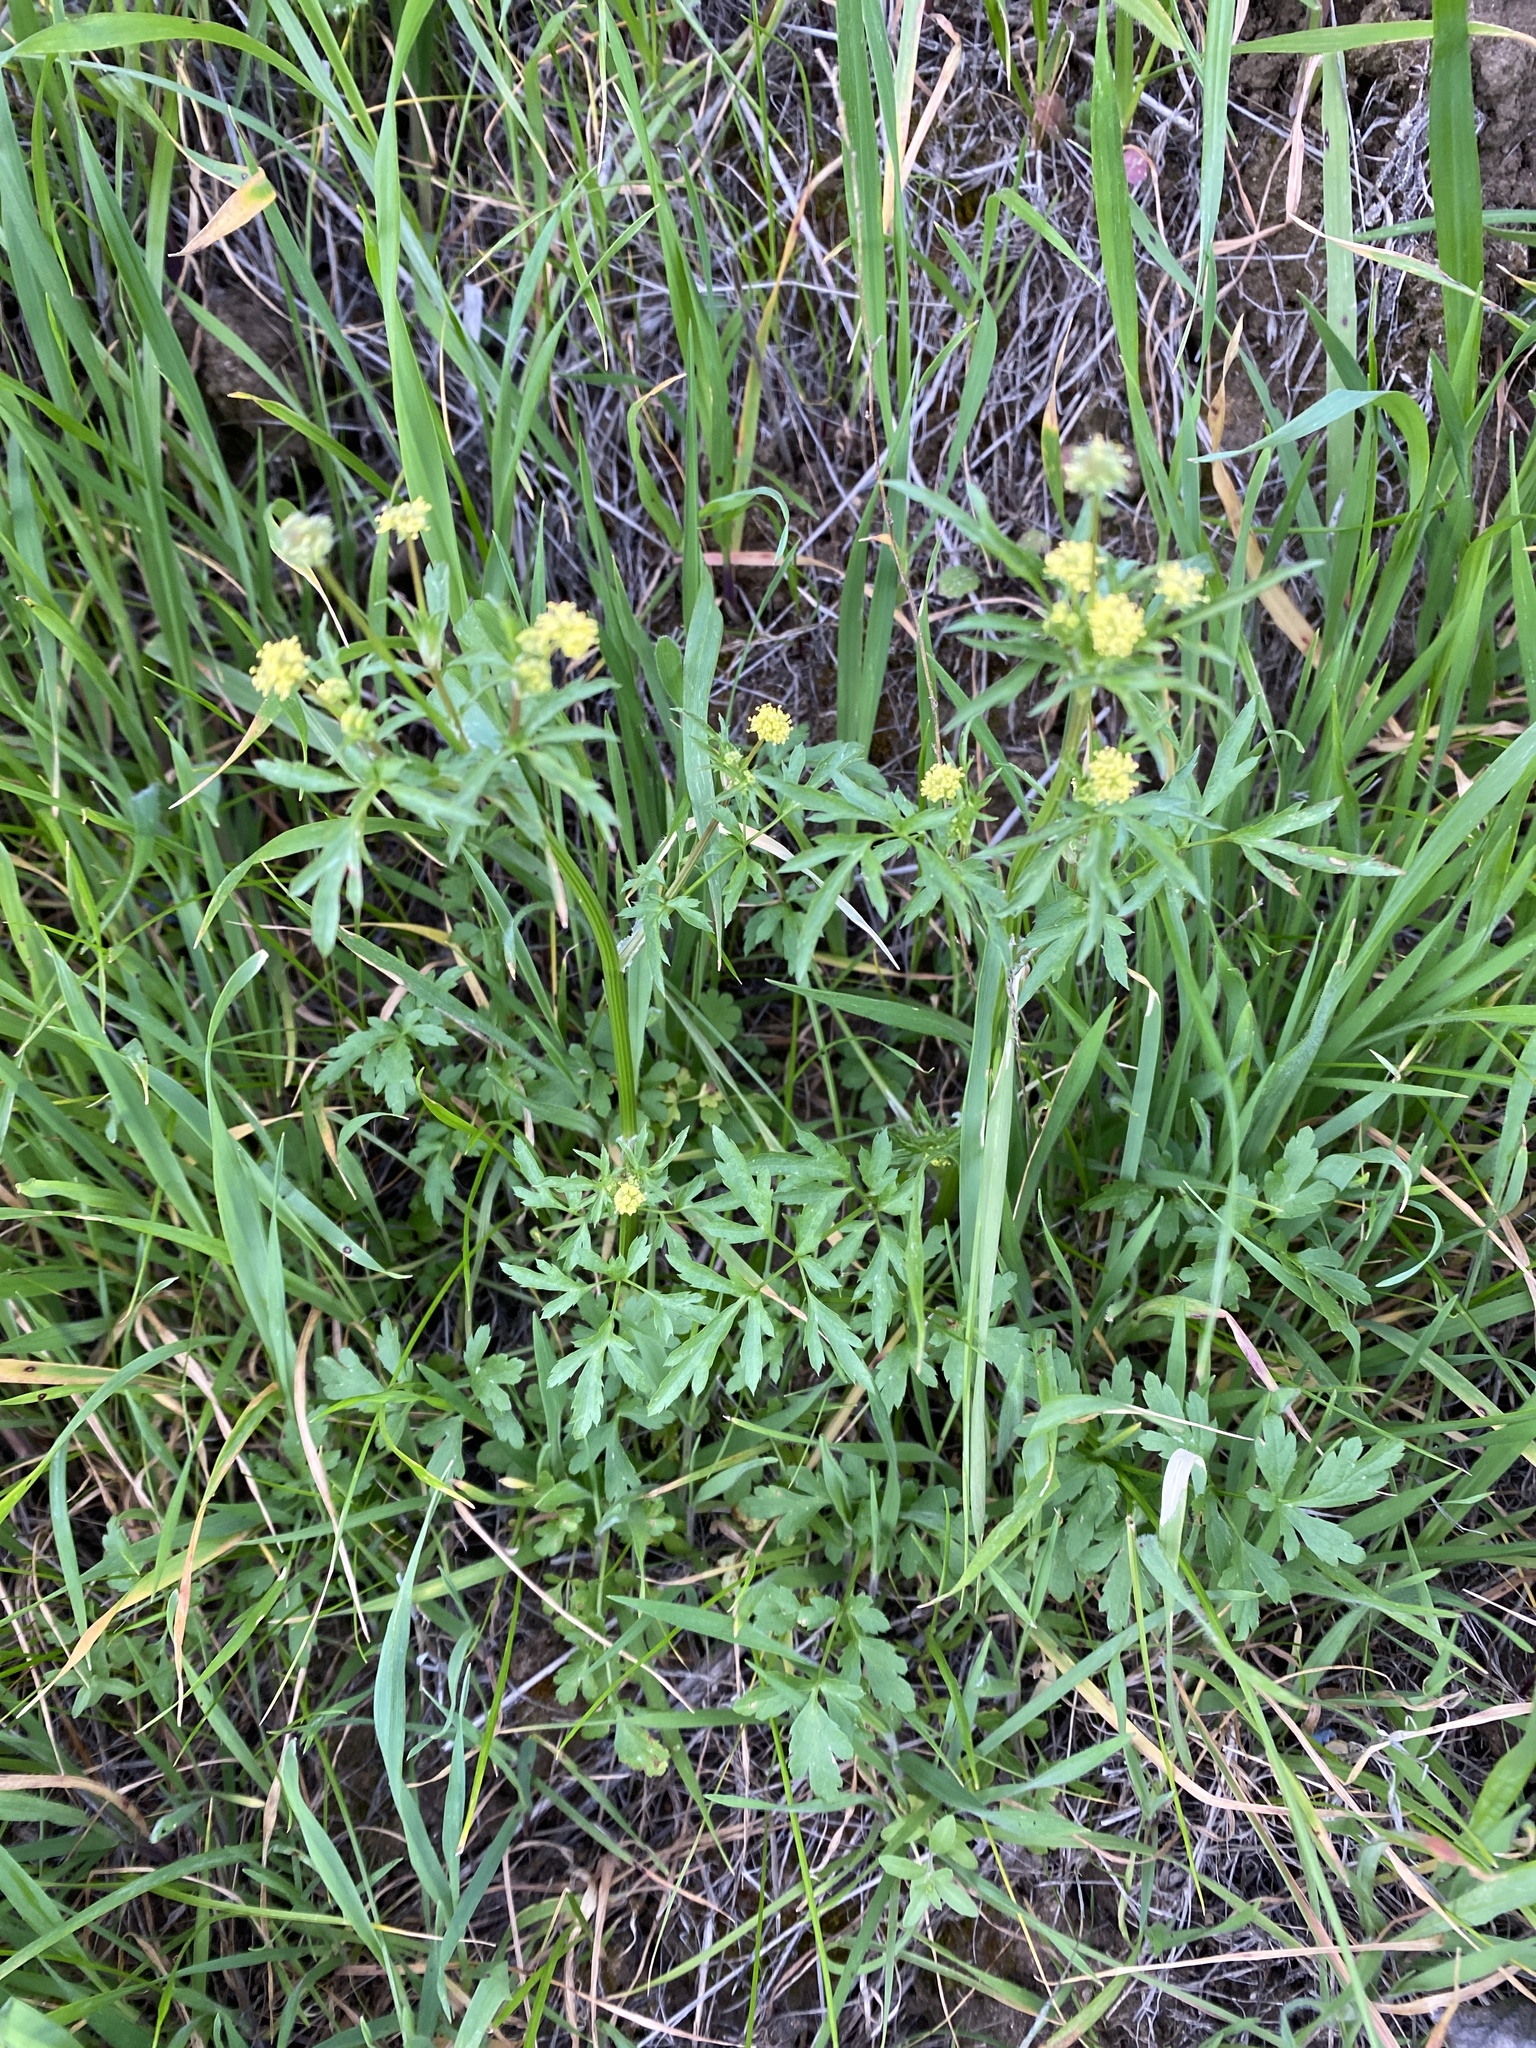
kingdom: Plantae
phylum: Tracheophyta
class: Magnoliopsida
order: Apiales
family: Apiaceae
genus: Sanicula
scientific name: Sanicula bipinnata
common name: Poison sanicle
